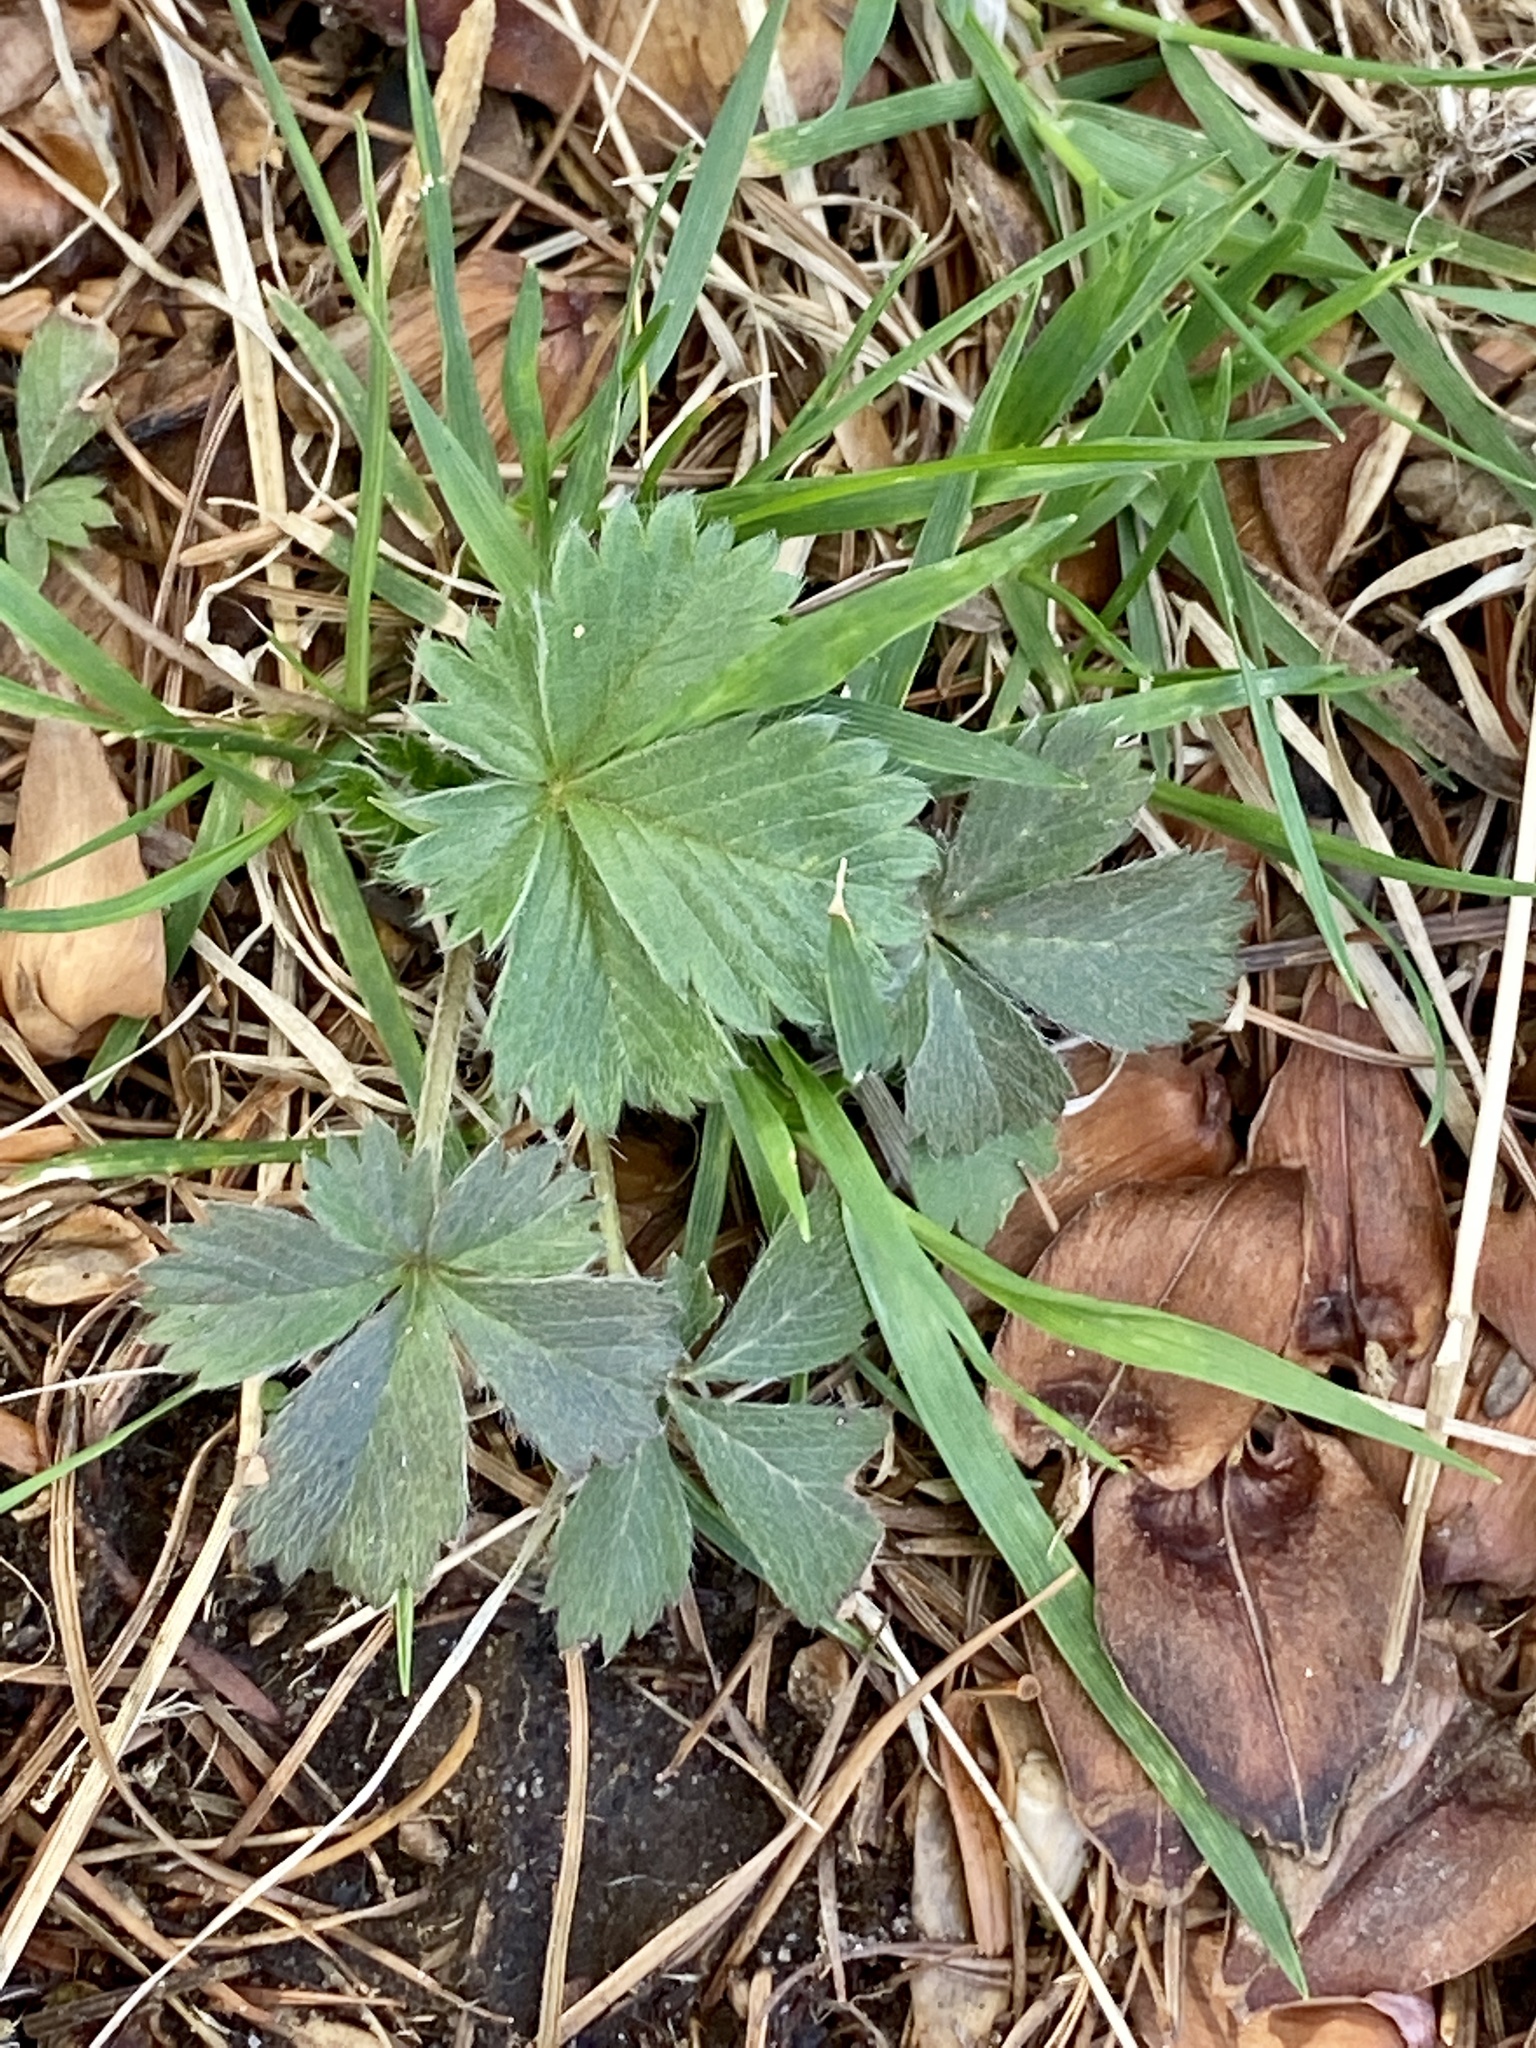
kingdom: Plantae
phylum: Tracheophyta
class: Magnoliopsida
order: Rosales
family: Rosaceae
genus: Potentilla
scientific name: Potentilla canadensis
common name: Canada cinquefoil
